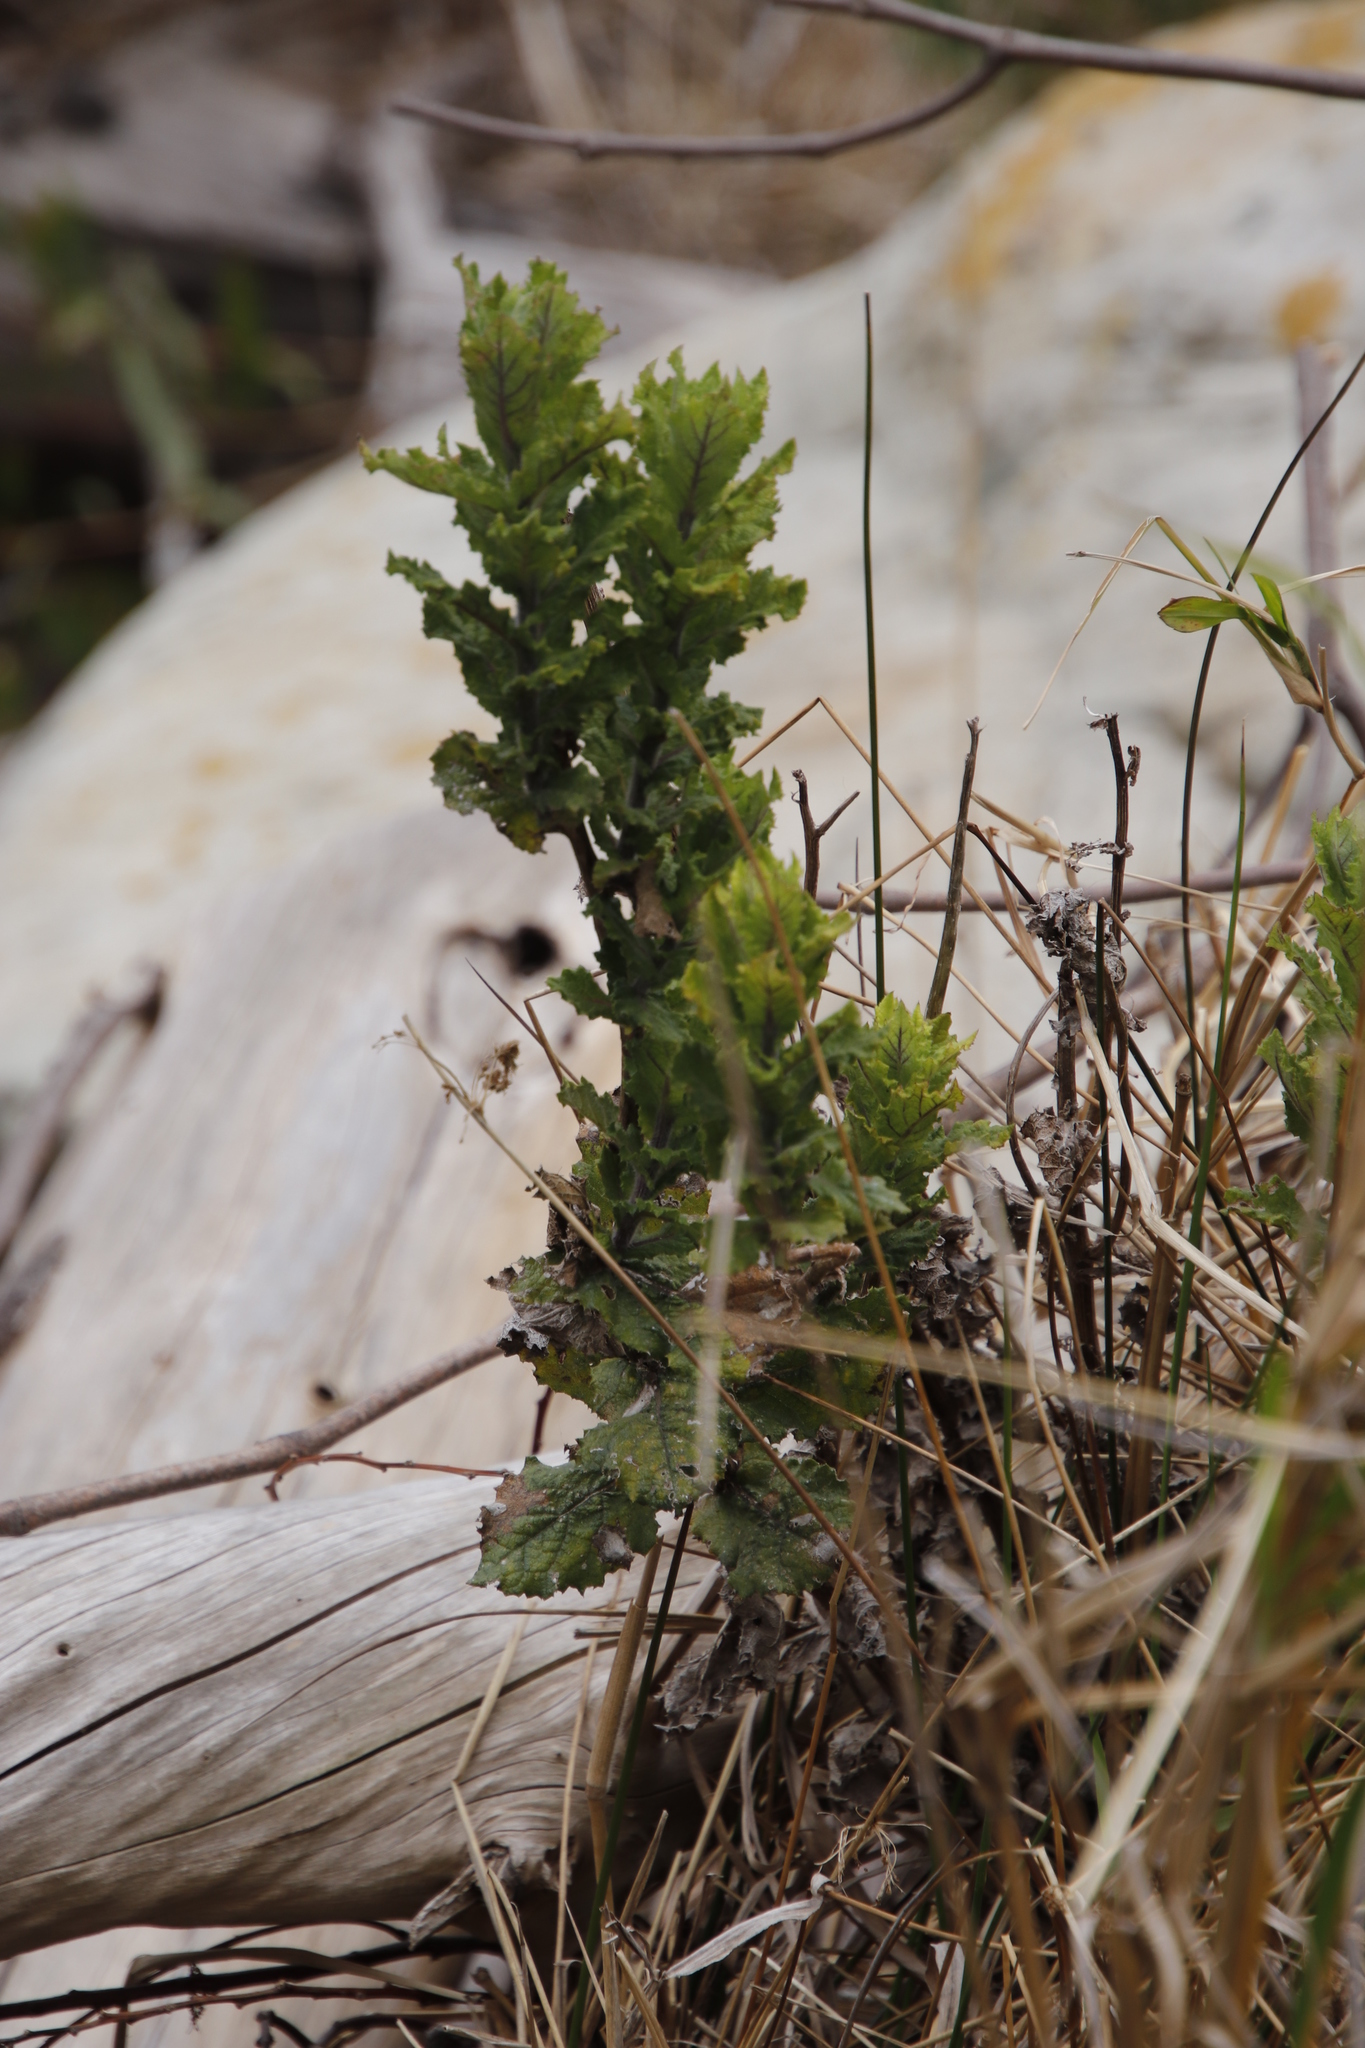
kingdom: Plantae
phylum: Tracheophyta
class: Magnoliopsida
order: Asterales
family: Asteraceae
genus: Senecio
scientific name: Senecio rigidus
